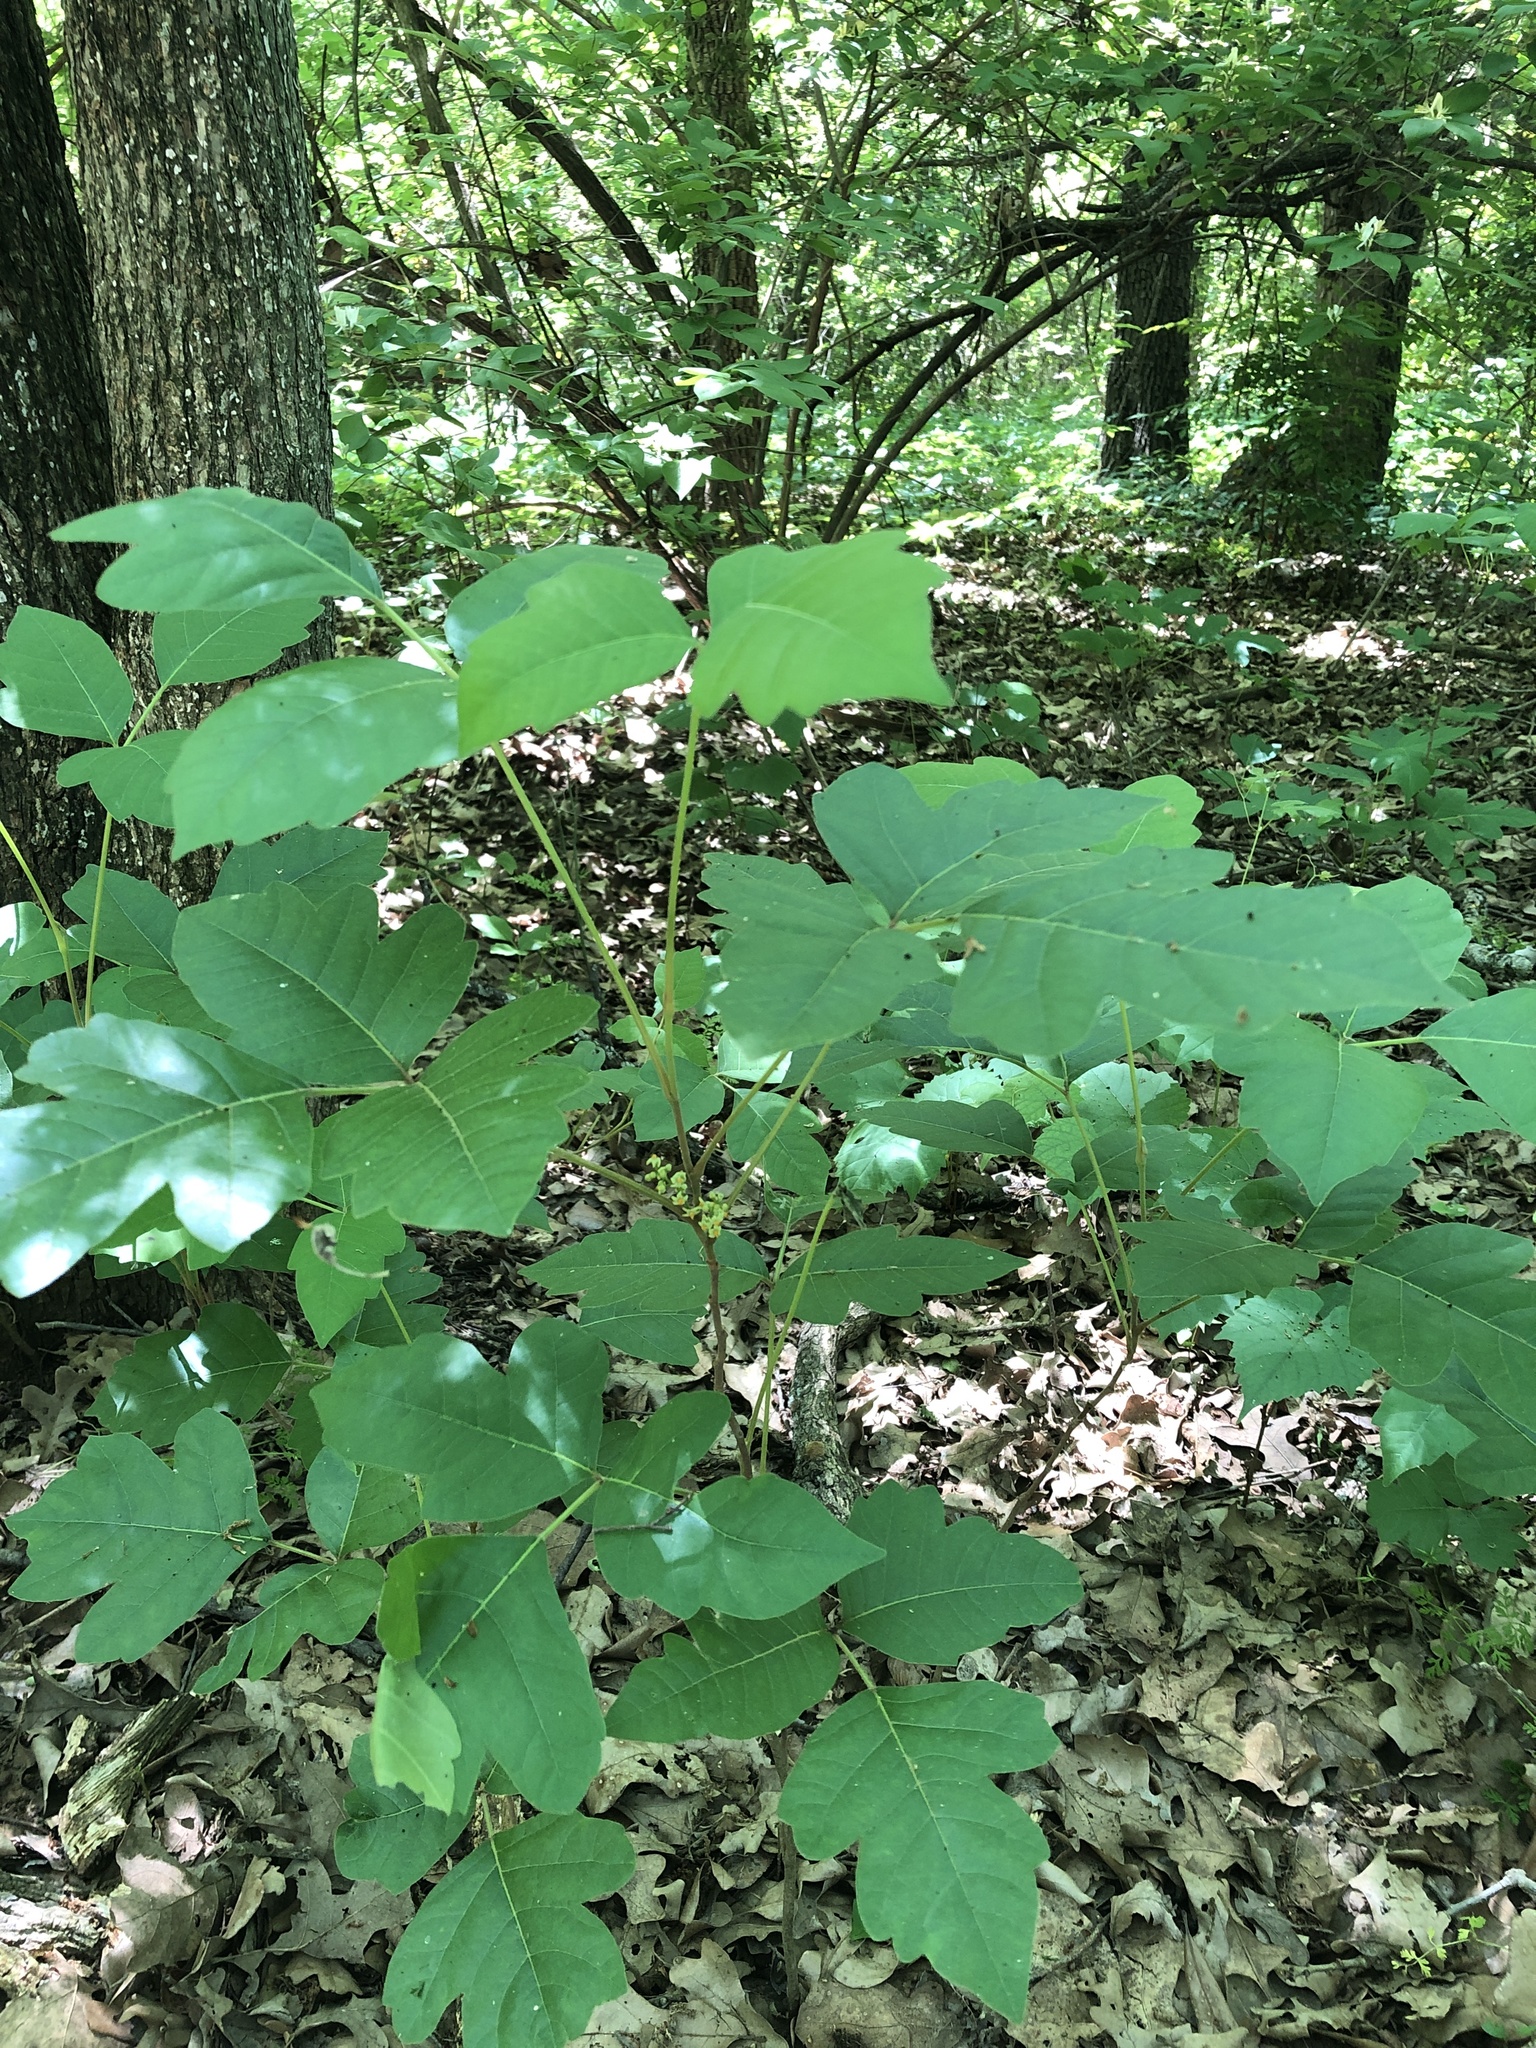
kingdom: Plantae
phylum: Tracheophyta
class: Magnoliopsida
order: Sapindales
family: Anacardiaceae
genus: Toxicodendron
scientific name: Toxicodendron radicans
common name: Poison ivy
